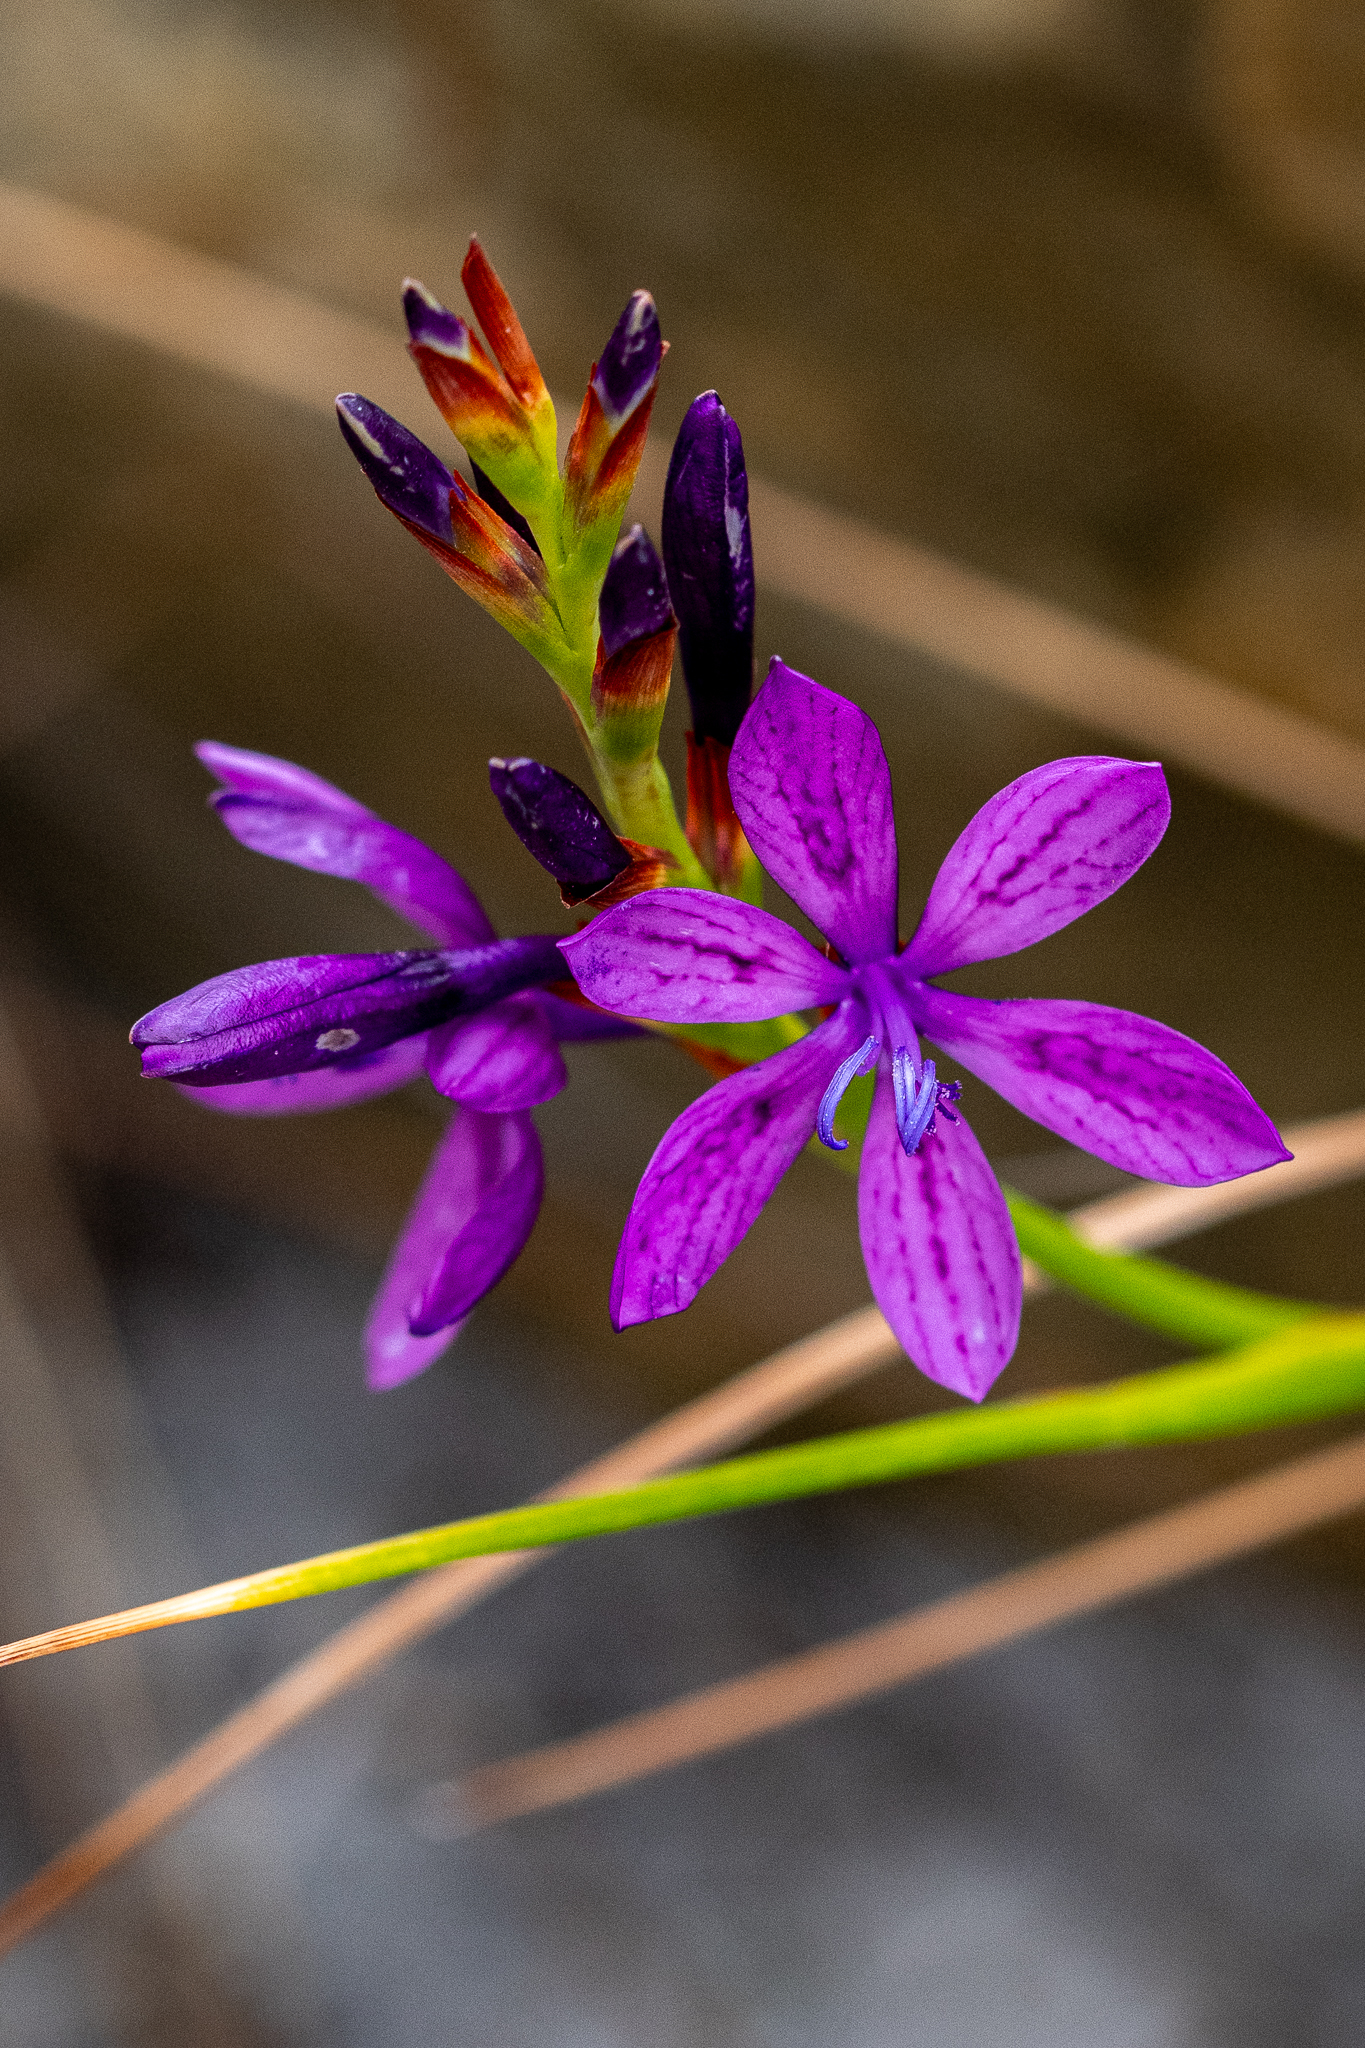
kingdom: Plantae
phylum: Tracheophyta
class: Liliopsida
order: Asparagales
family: Iridaceae
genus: Thereianthus
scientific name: Thereianthus bracteolatus
